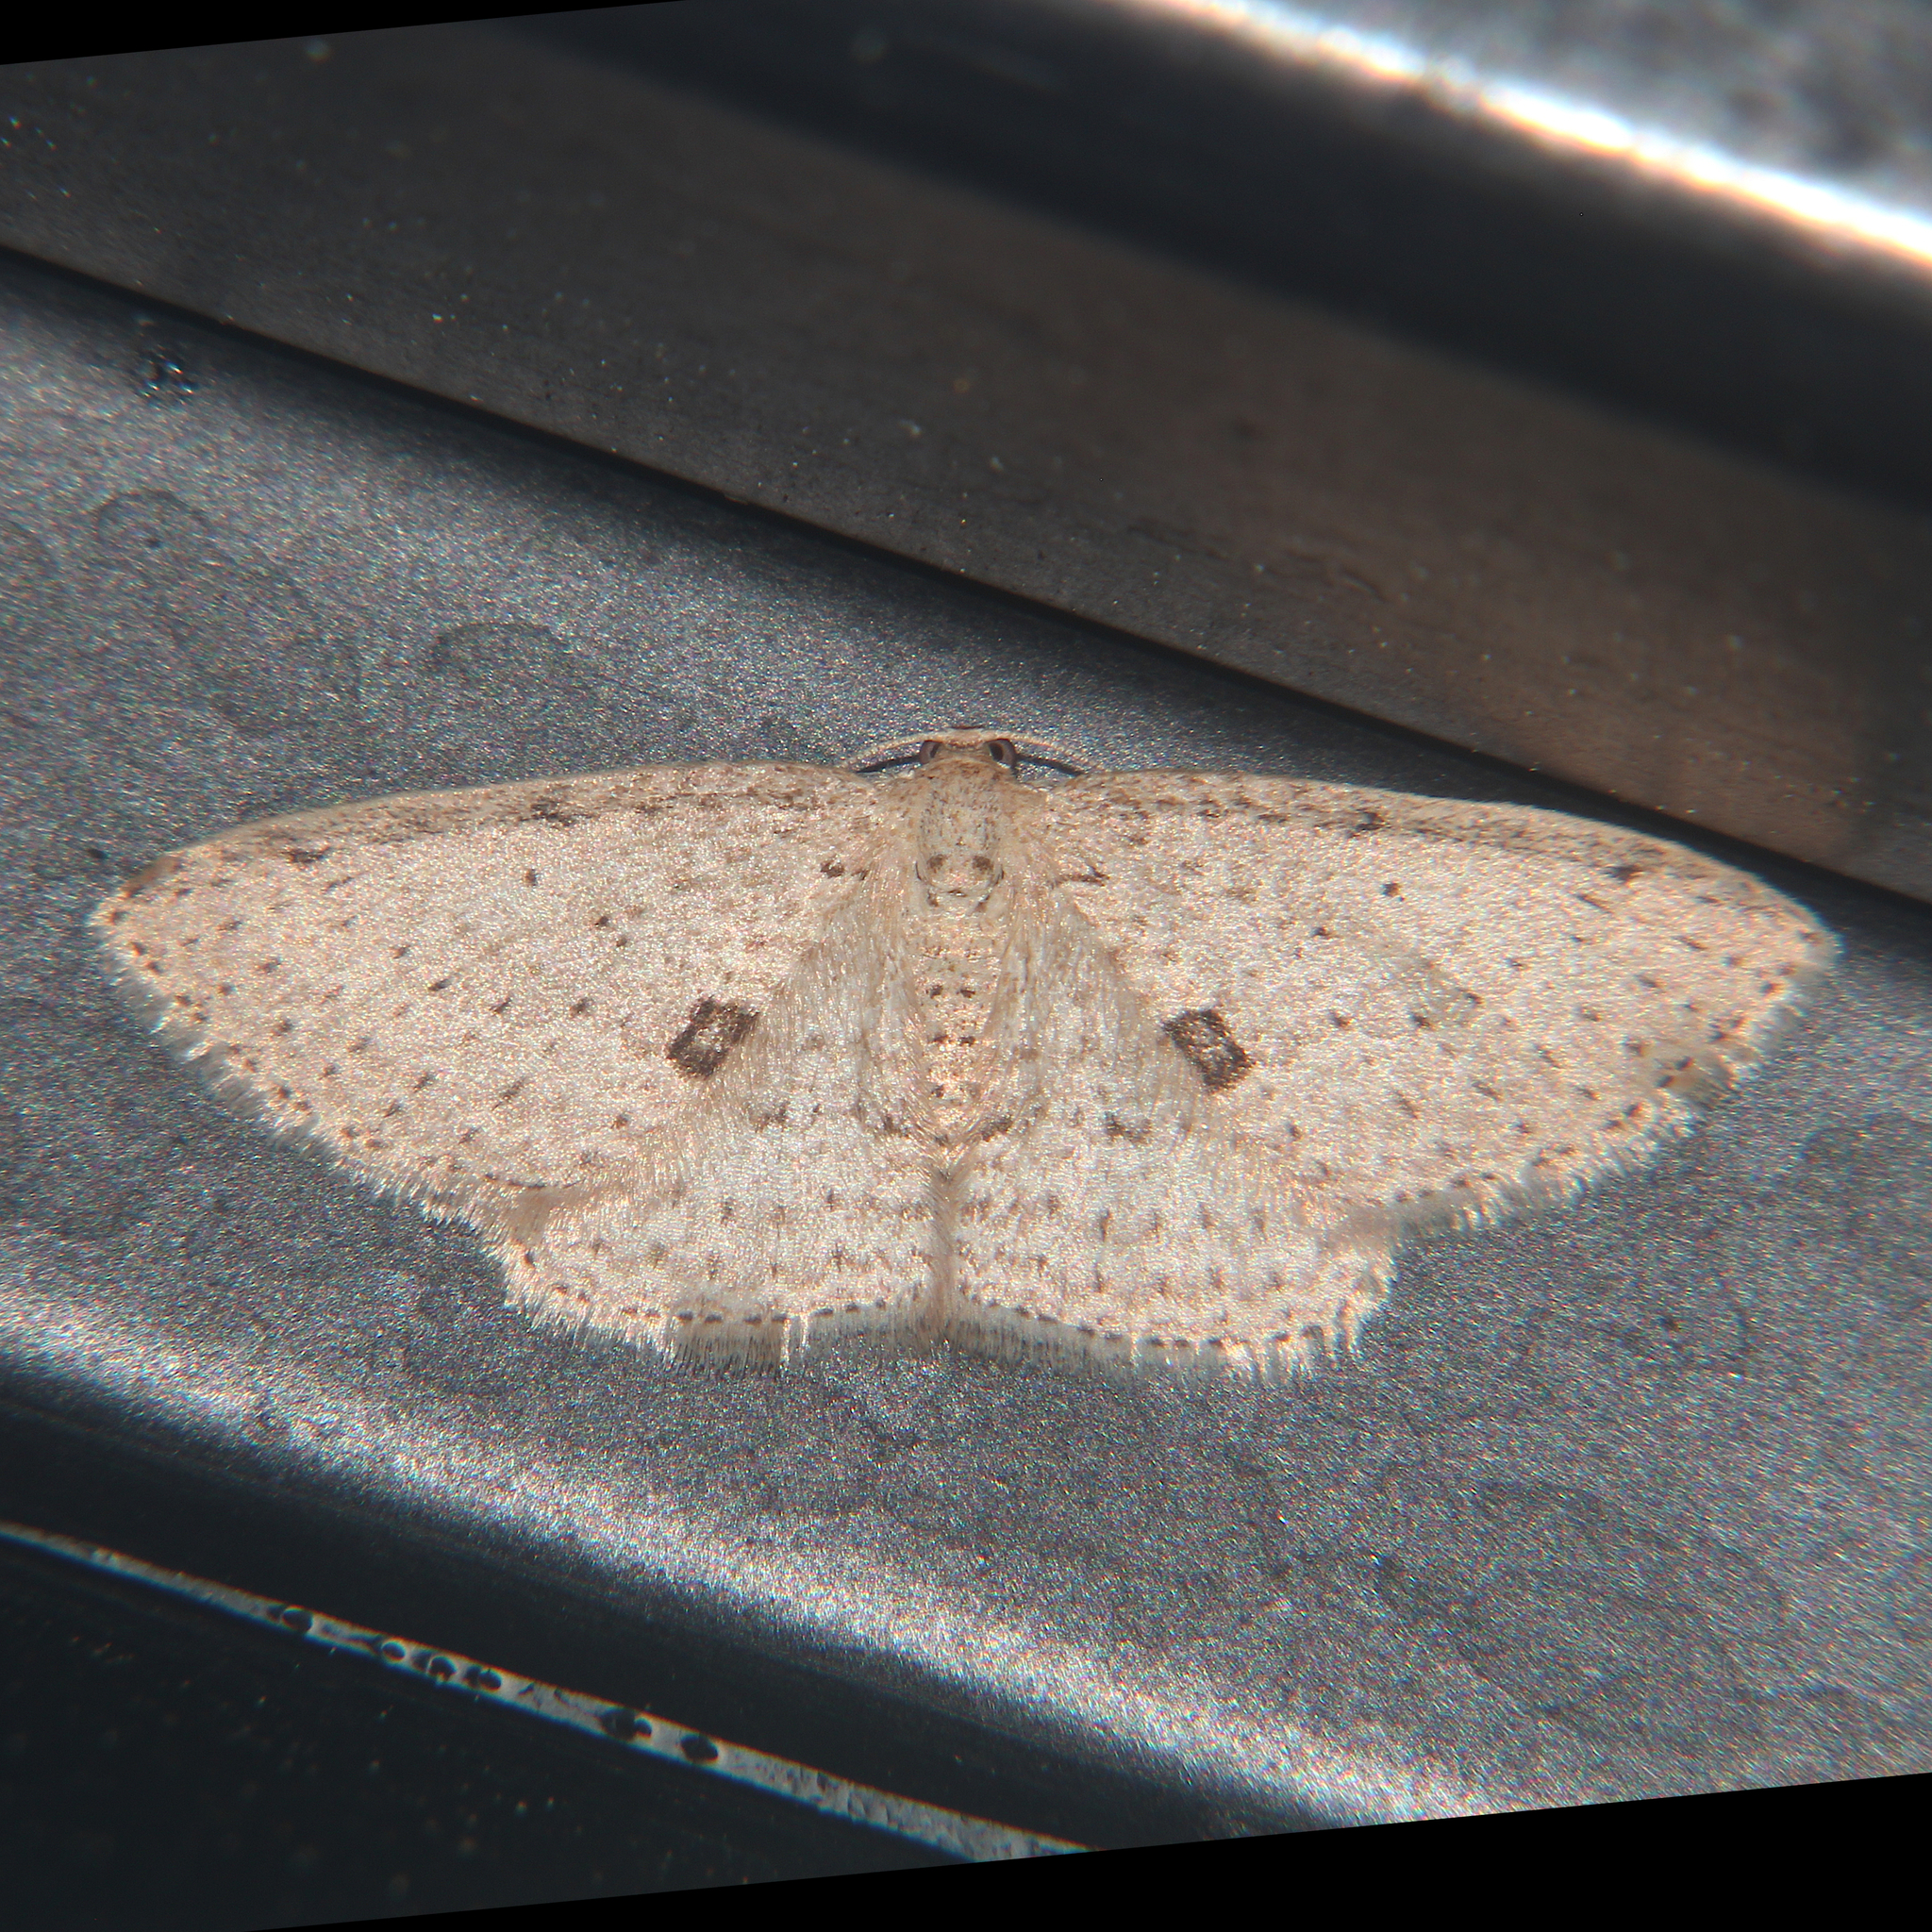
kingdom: Animalia
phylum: Arthropoda
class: Insecta
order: Lepidoptera
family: Geometridae
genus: Poecilasthena
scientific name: Poecilasthena schistaria
